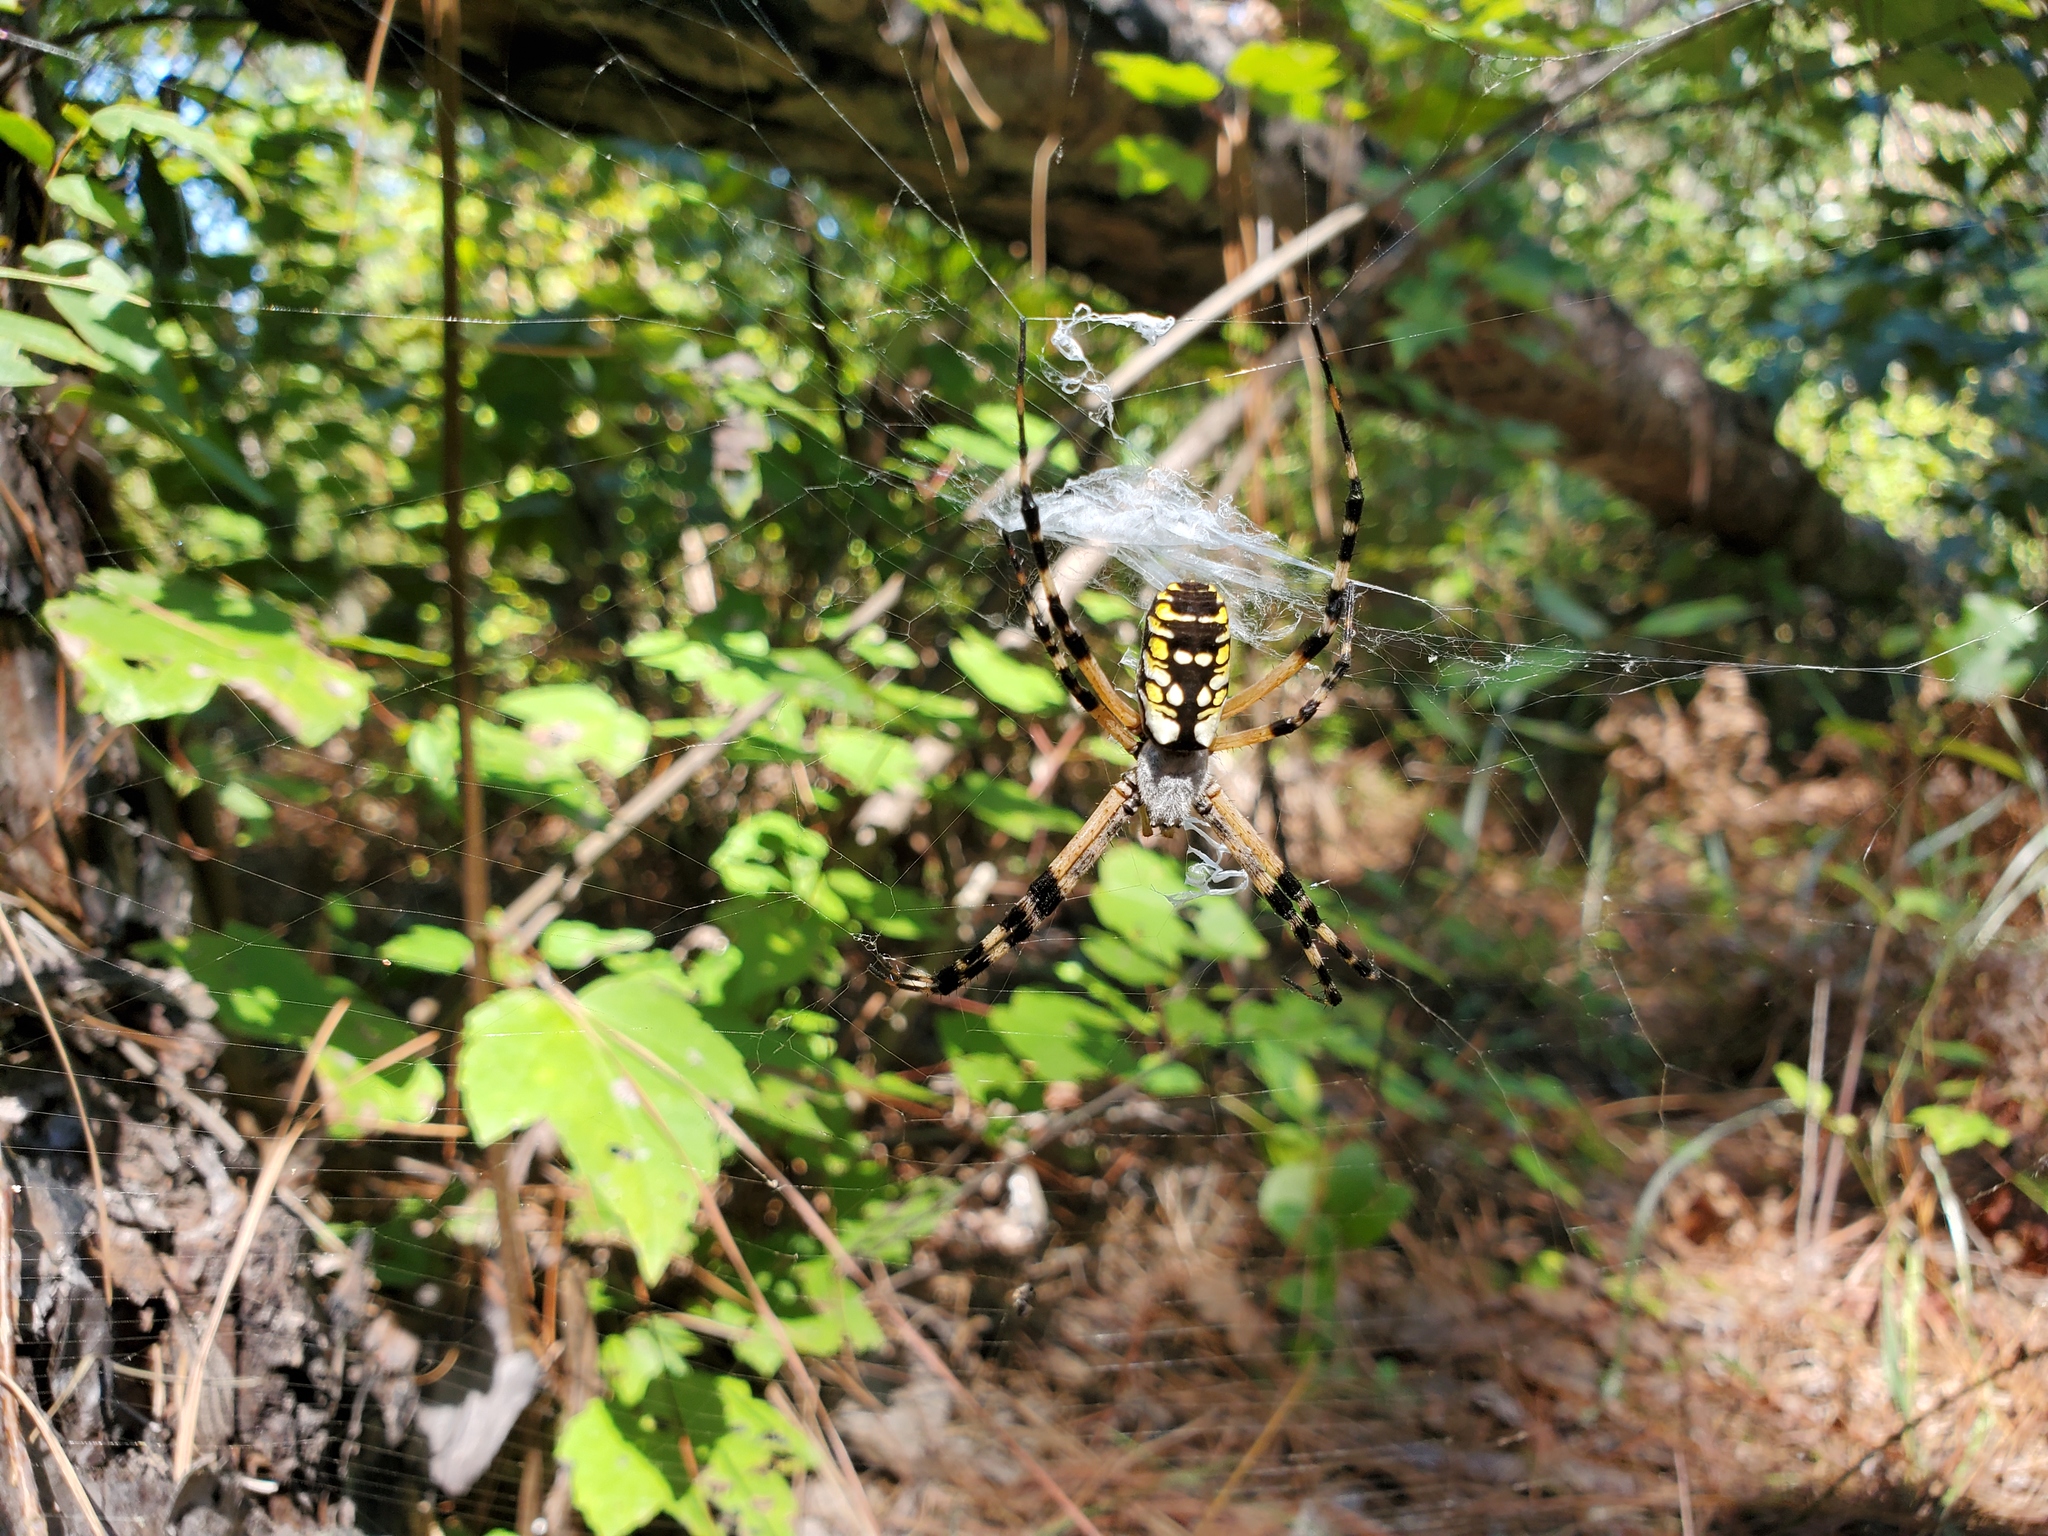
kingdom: Animalia
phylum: Arthropoda
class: Arachnida
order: Araneae
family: Araneidae
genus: Argiope
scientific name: Argiope aurantia
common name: Orb weavers
